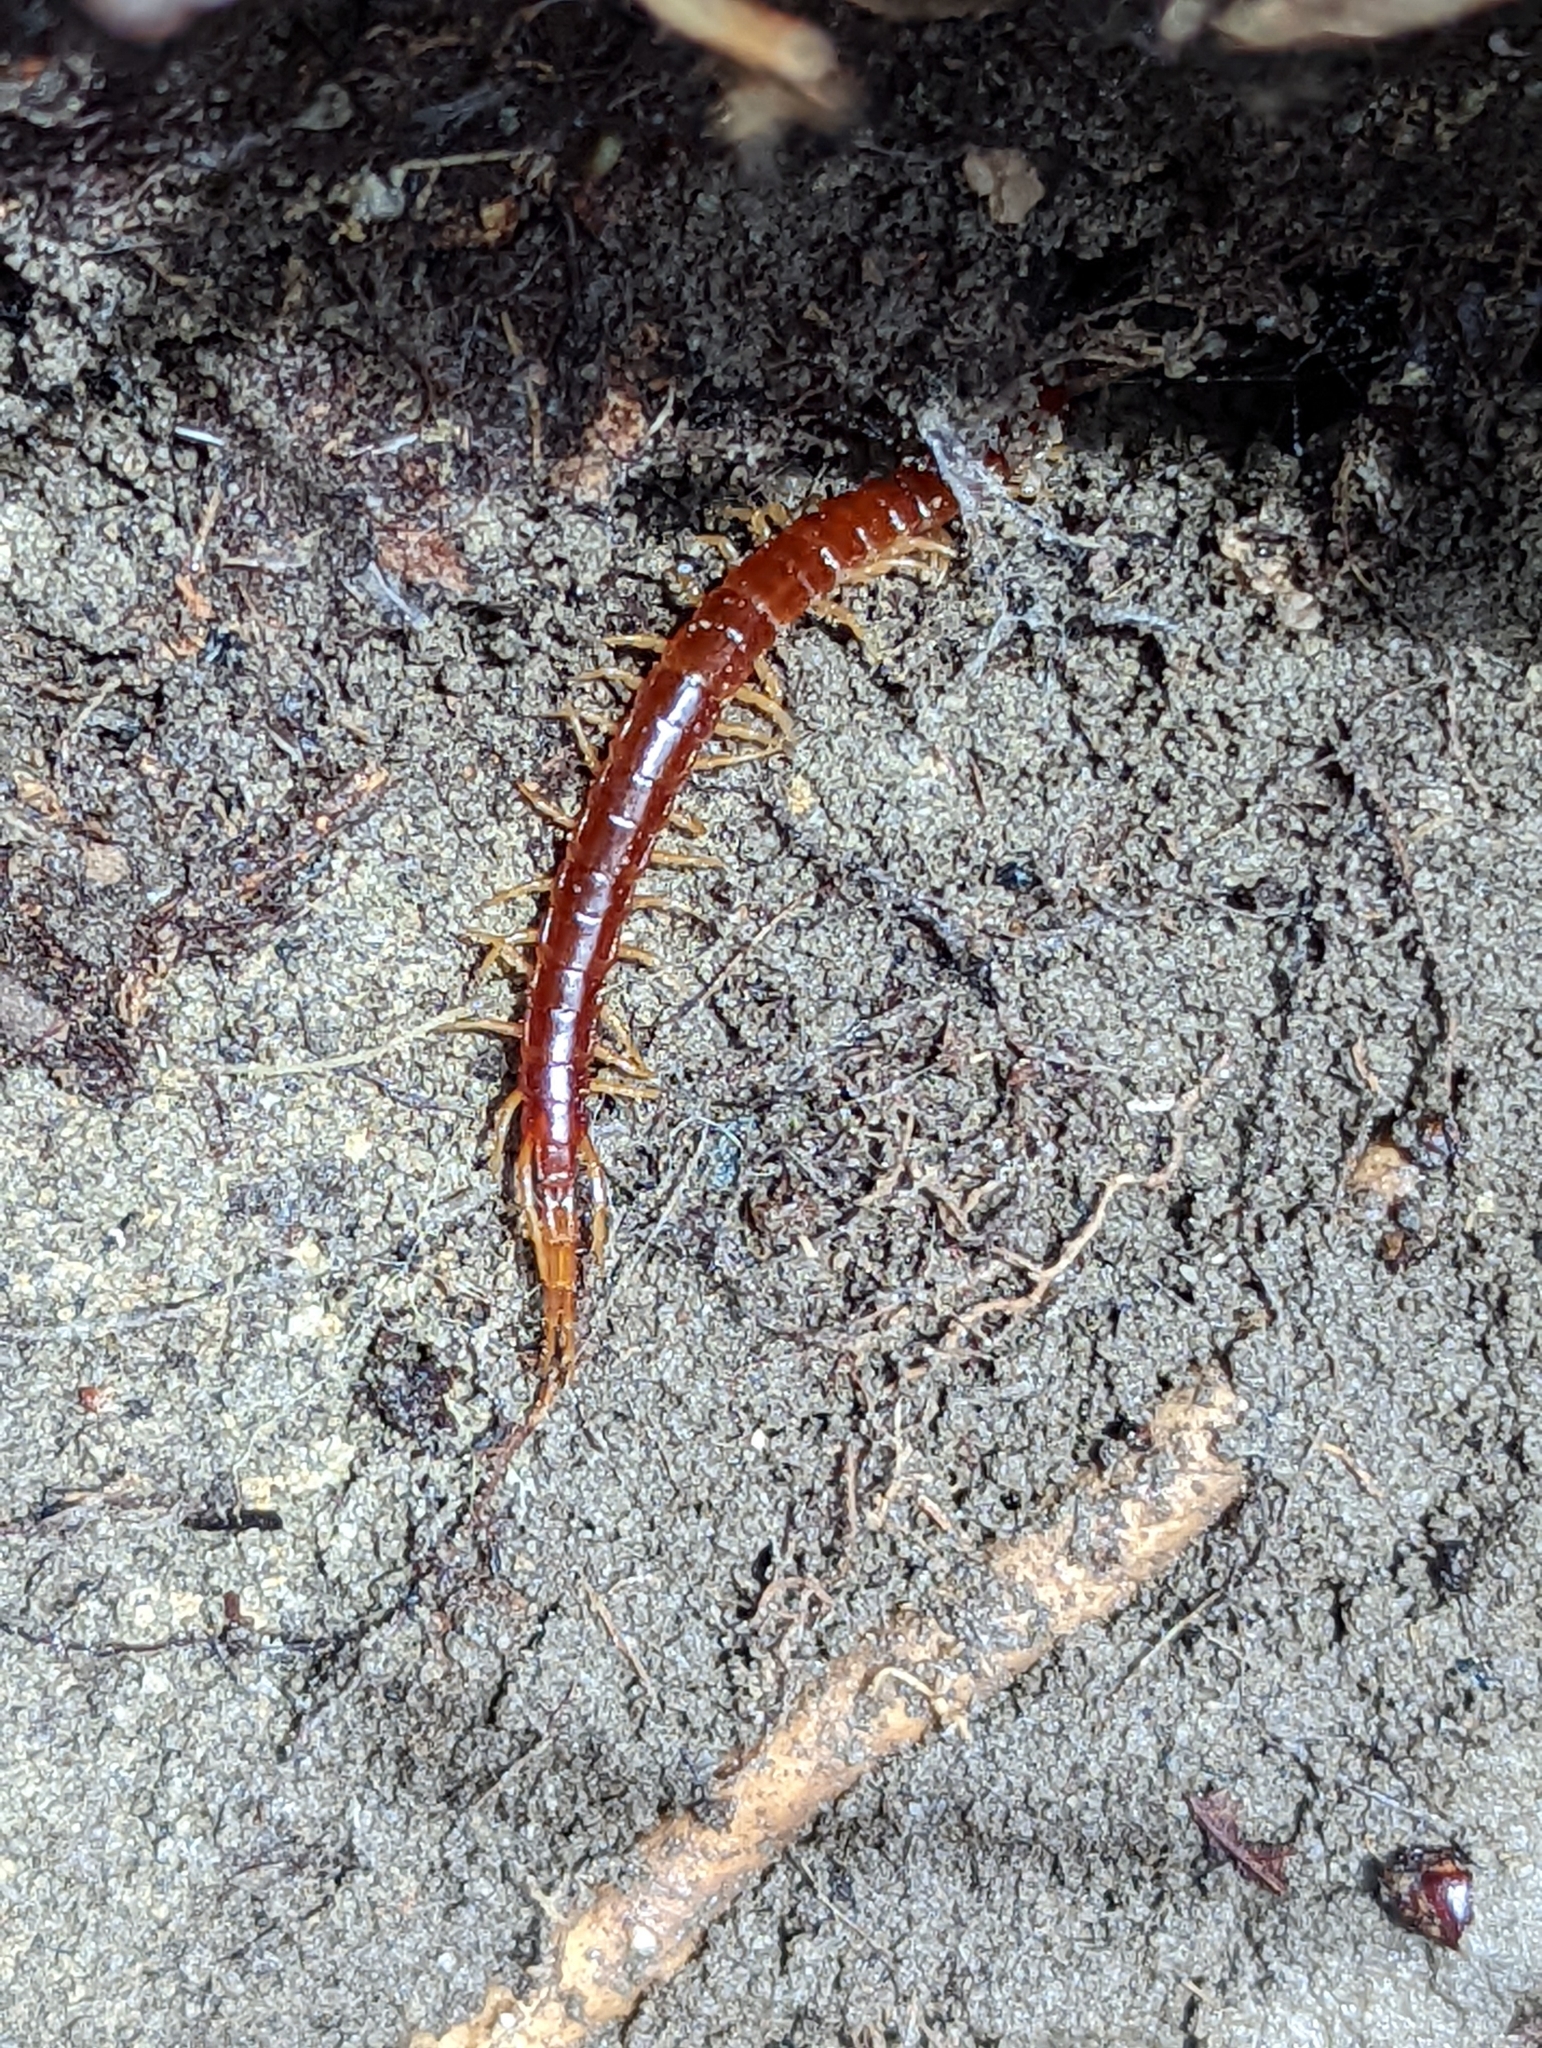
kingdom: Animalia
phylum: Arthropoda
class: Chilopoda
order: Scolopendromorpha
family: Scolopocryptopidae
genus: Scolopocryptops
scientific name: Scolopocryptops sexspinosus
